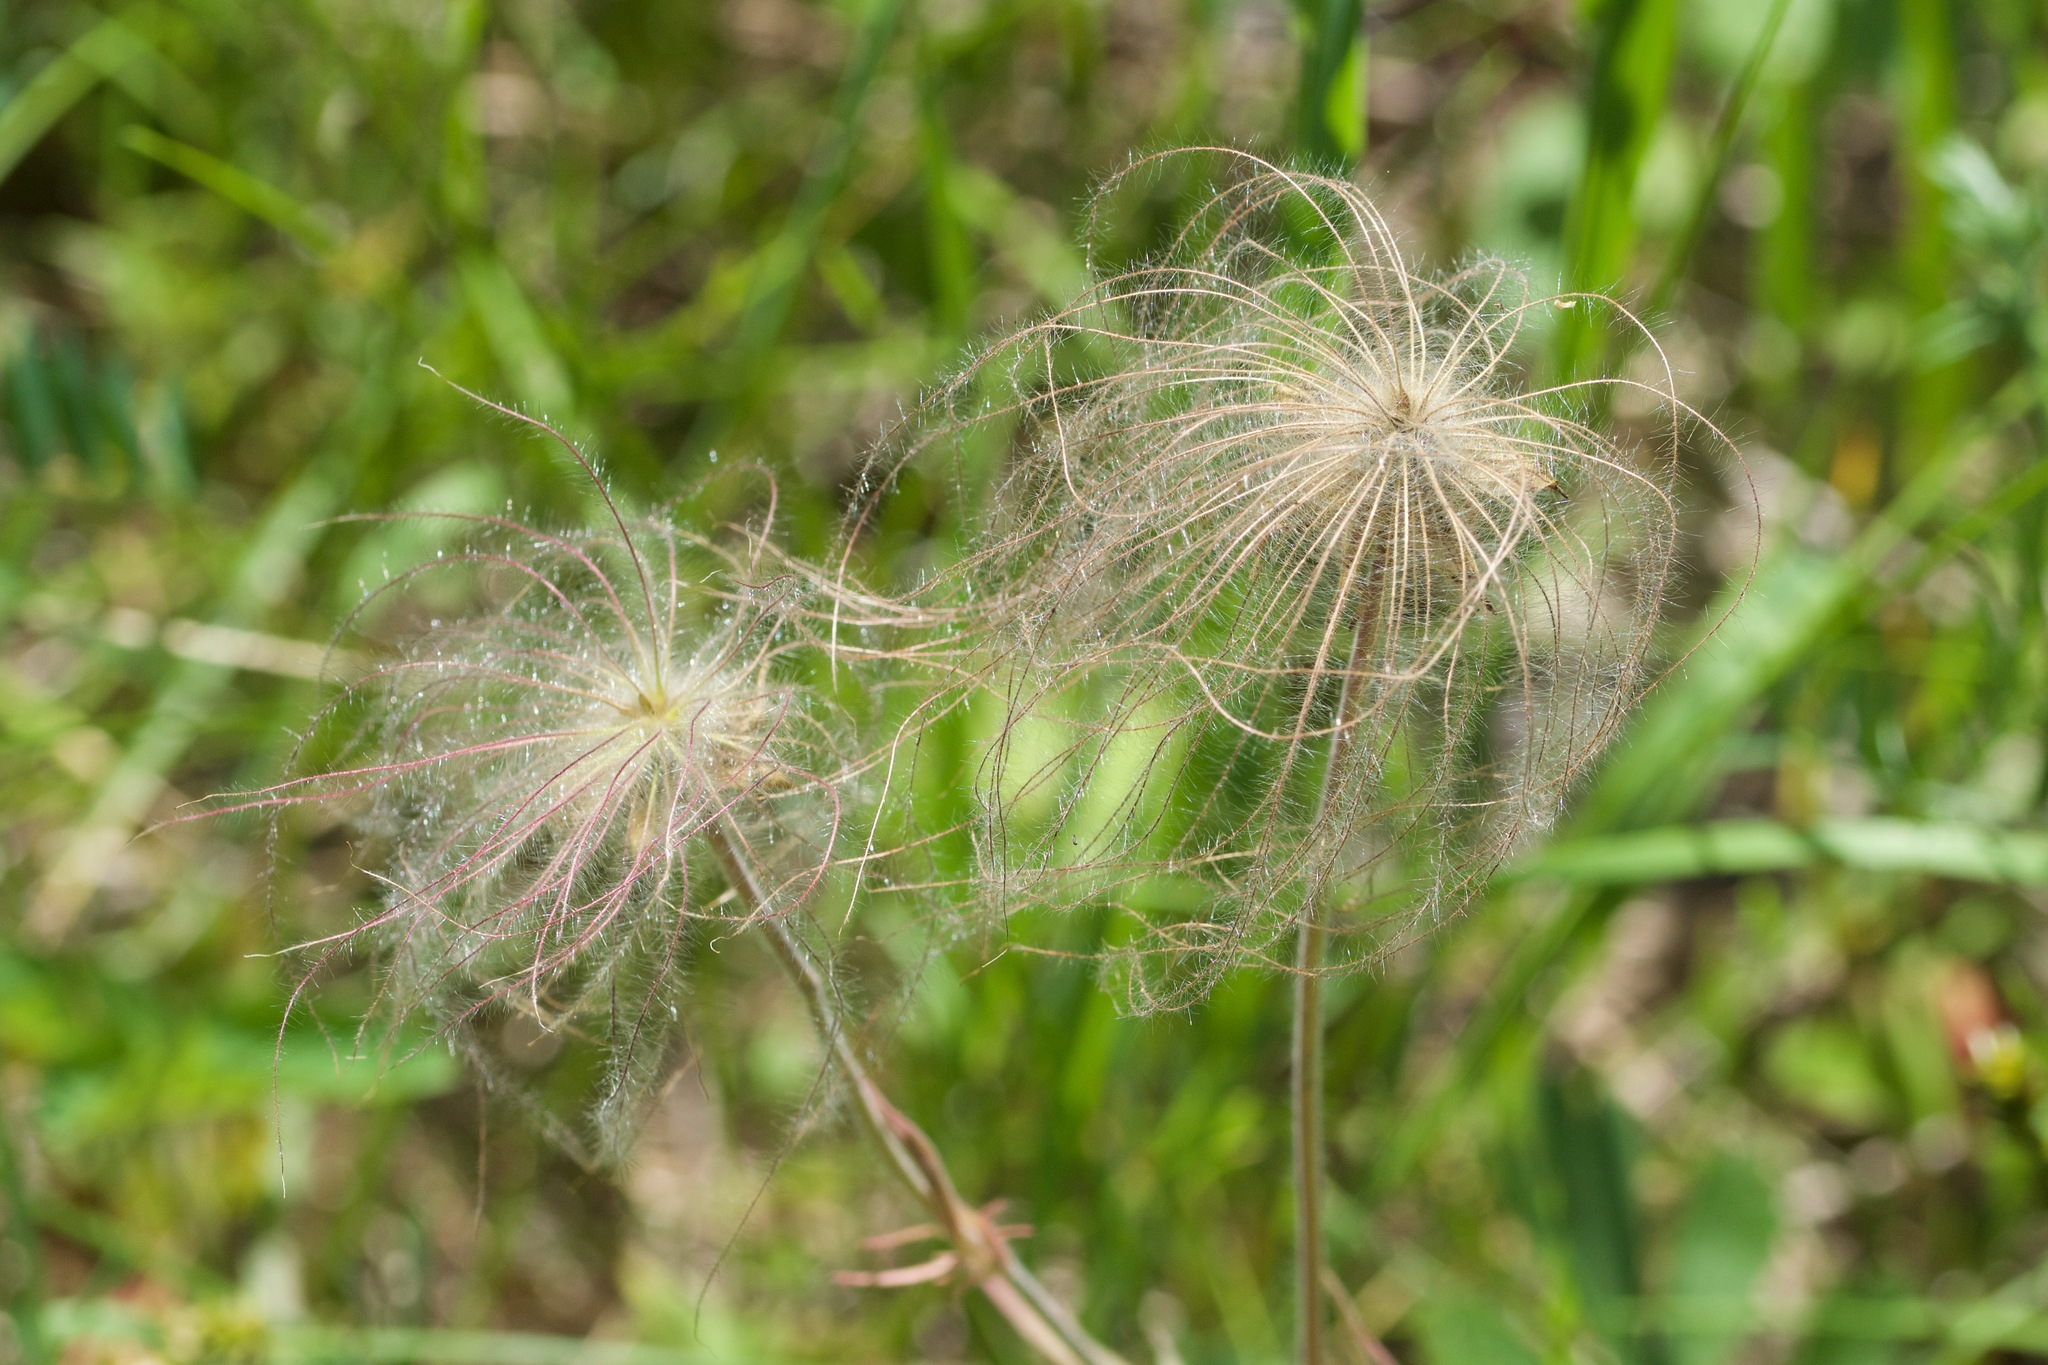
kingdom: Plantae
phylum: Tracheophyta
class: Magnoliopsida
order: Rosales
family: Rosaceae
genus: Geum
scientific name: Geum triflorum
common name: Old man's whiskers
